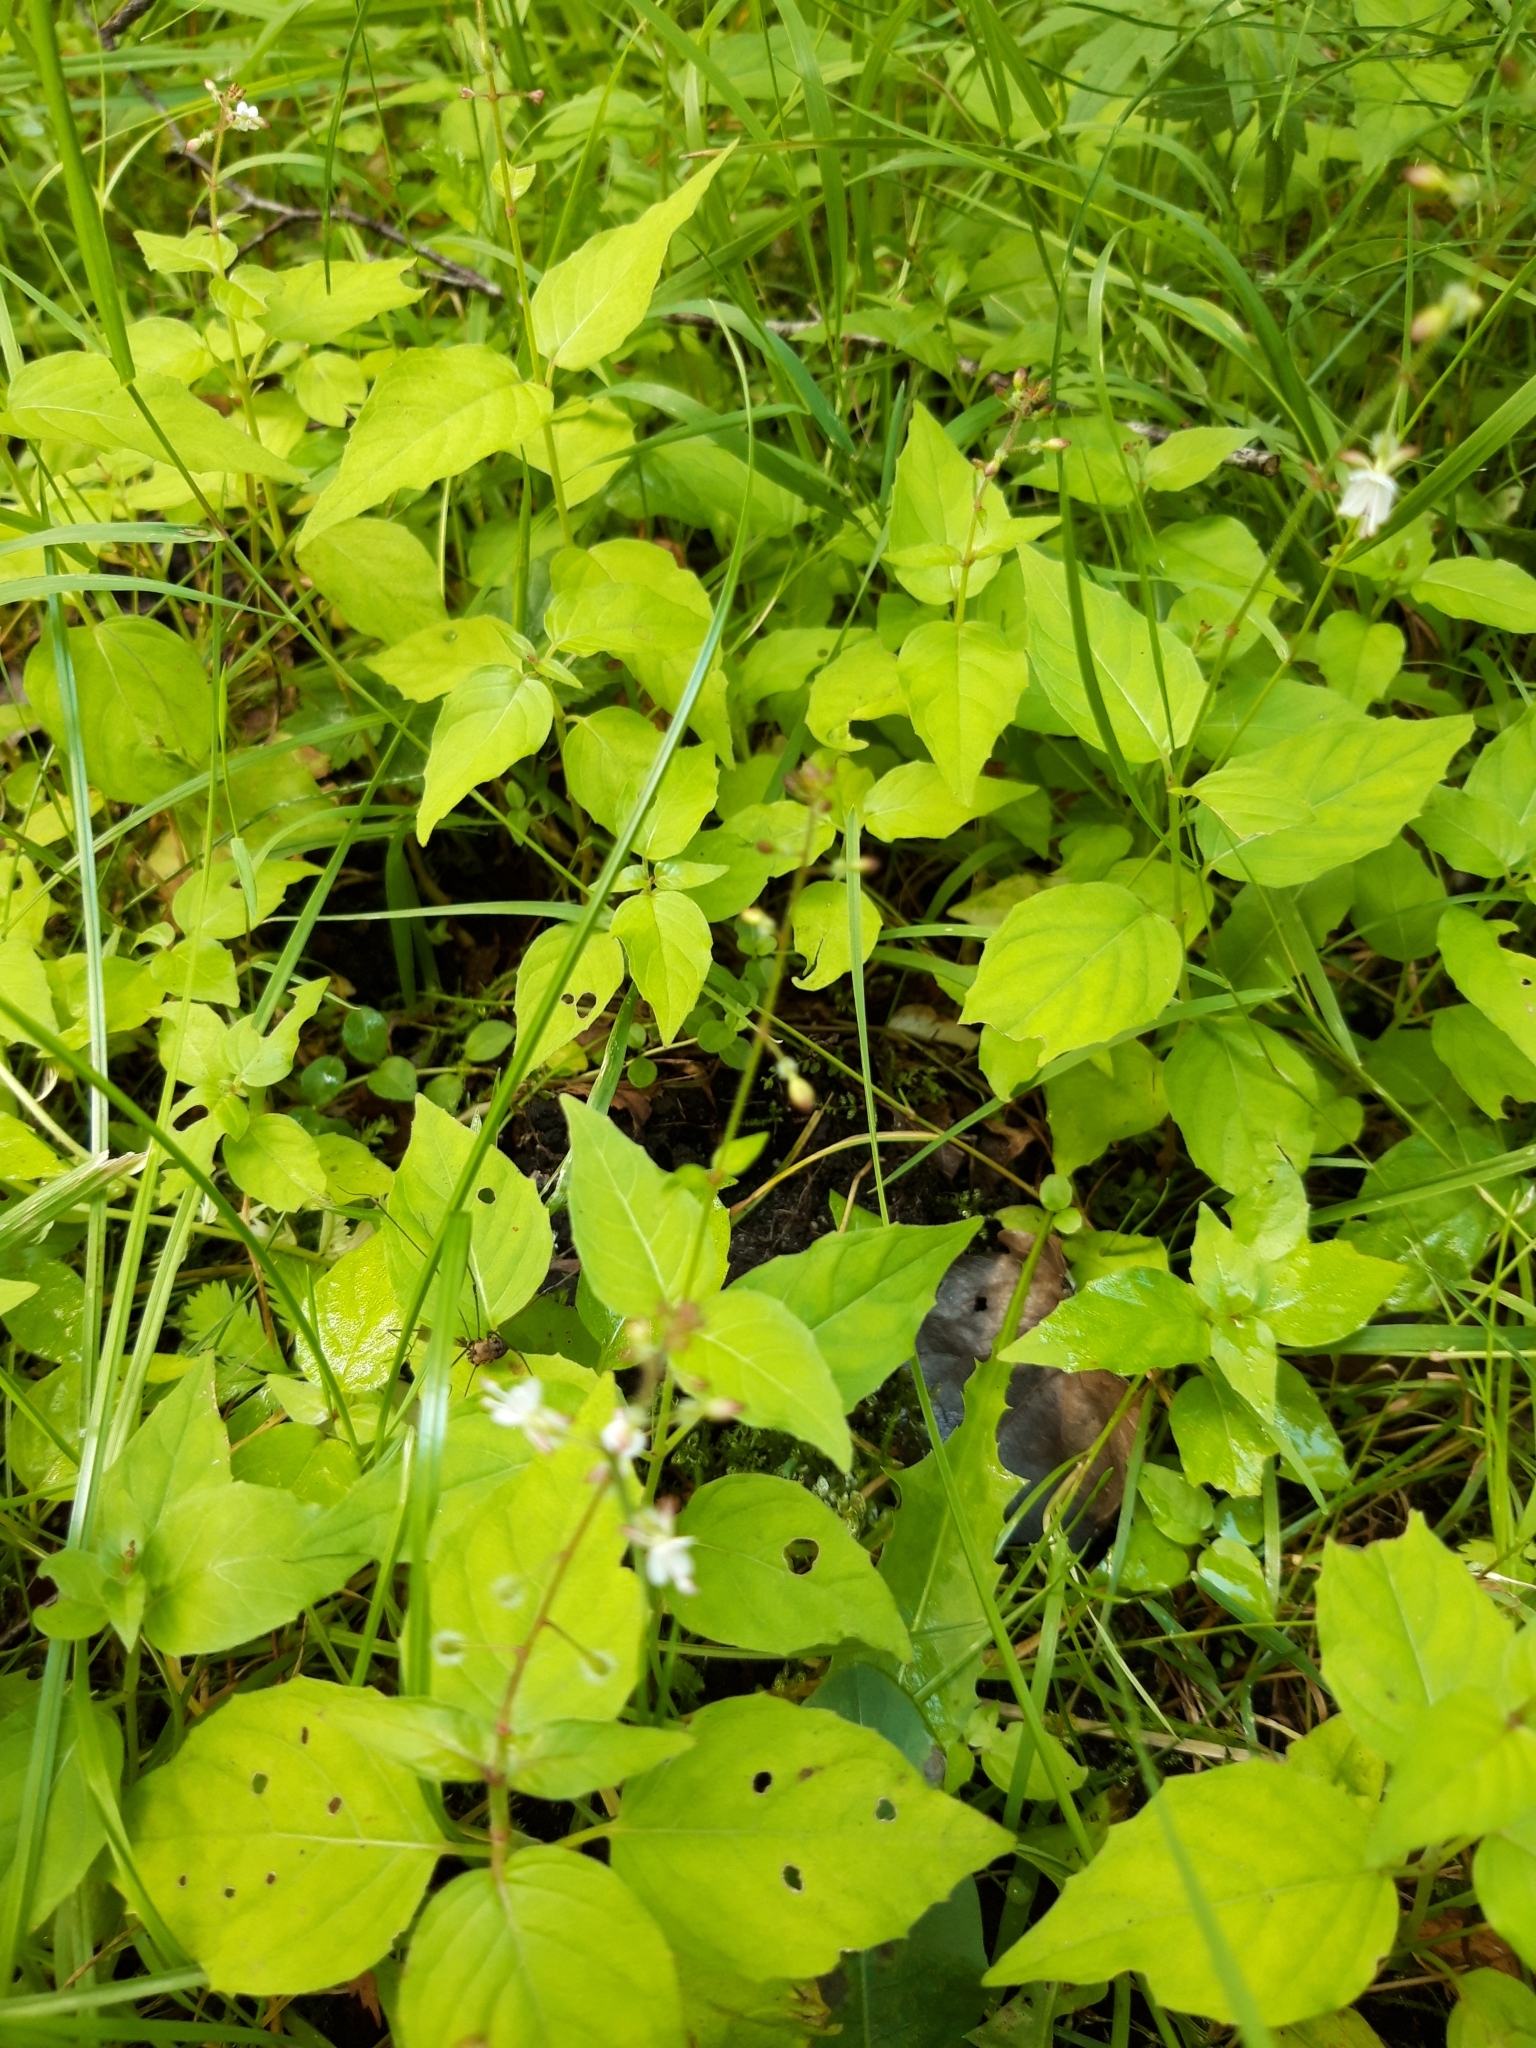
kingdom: Plantae
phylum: Tracheophyta
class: Magnoliopsida
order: Myrtales
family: Onagraceae
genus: Circaea
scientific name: Circaea lutetiana
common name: Enchanter's-nightshade
